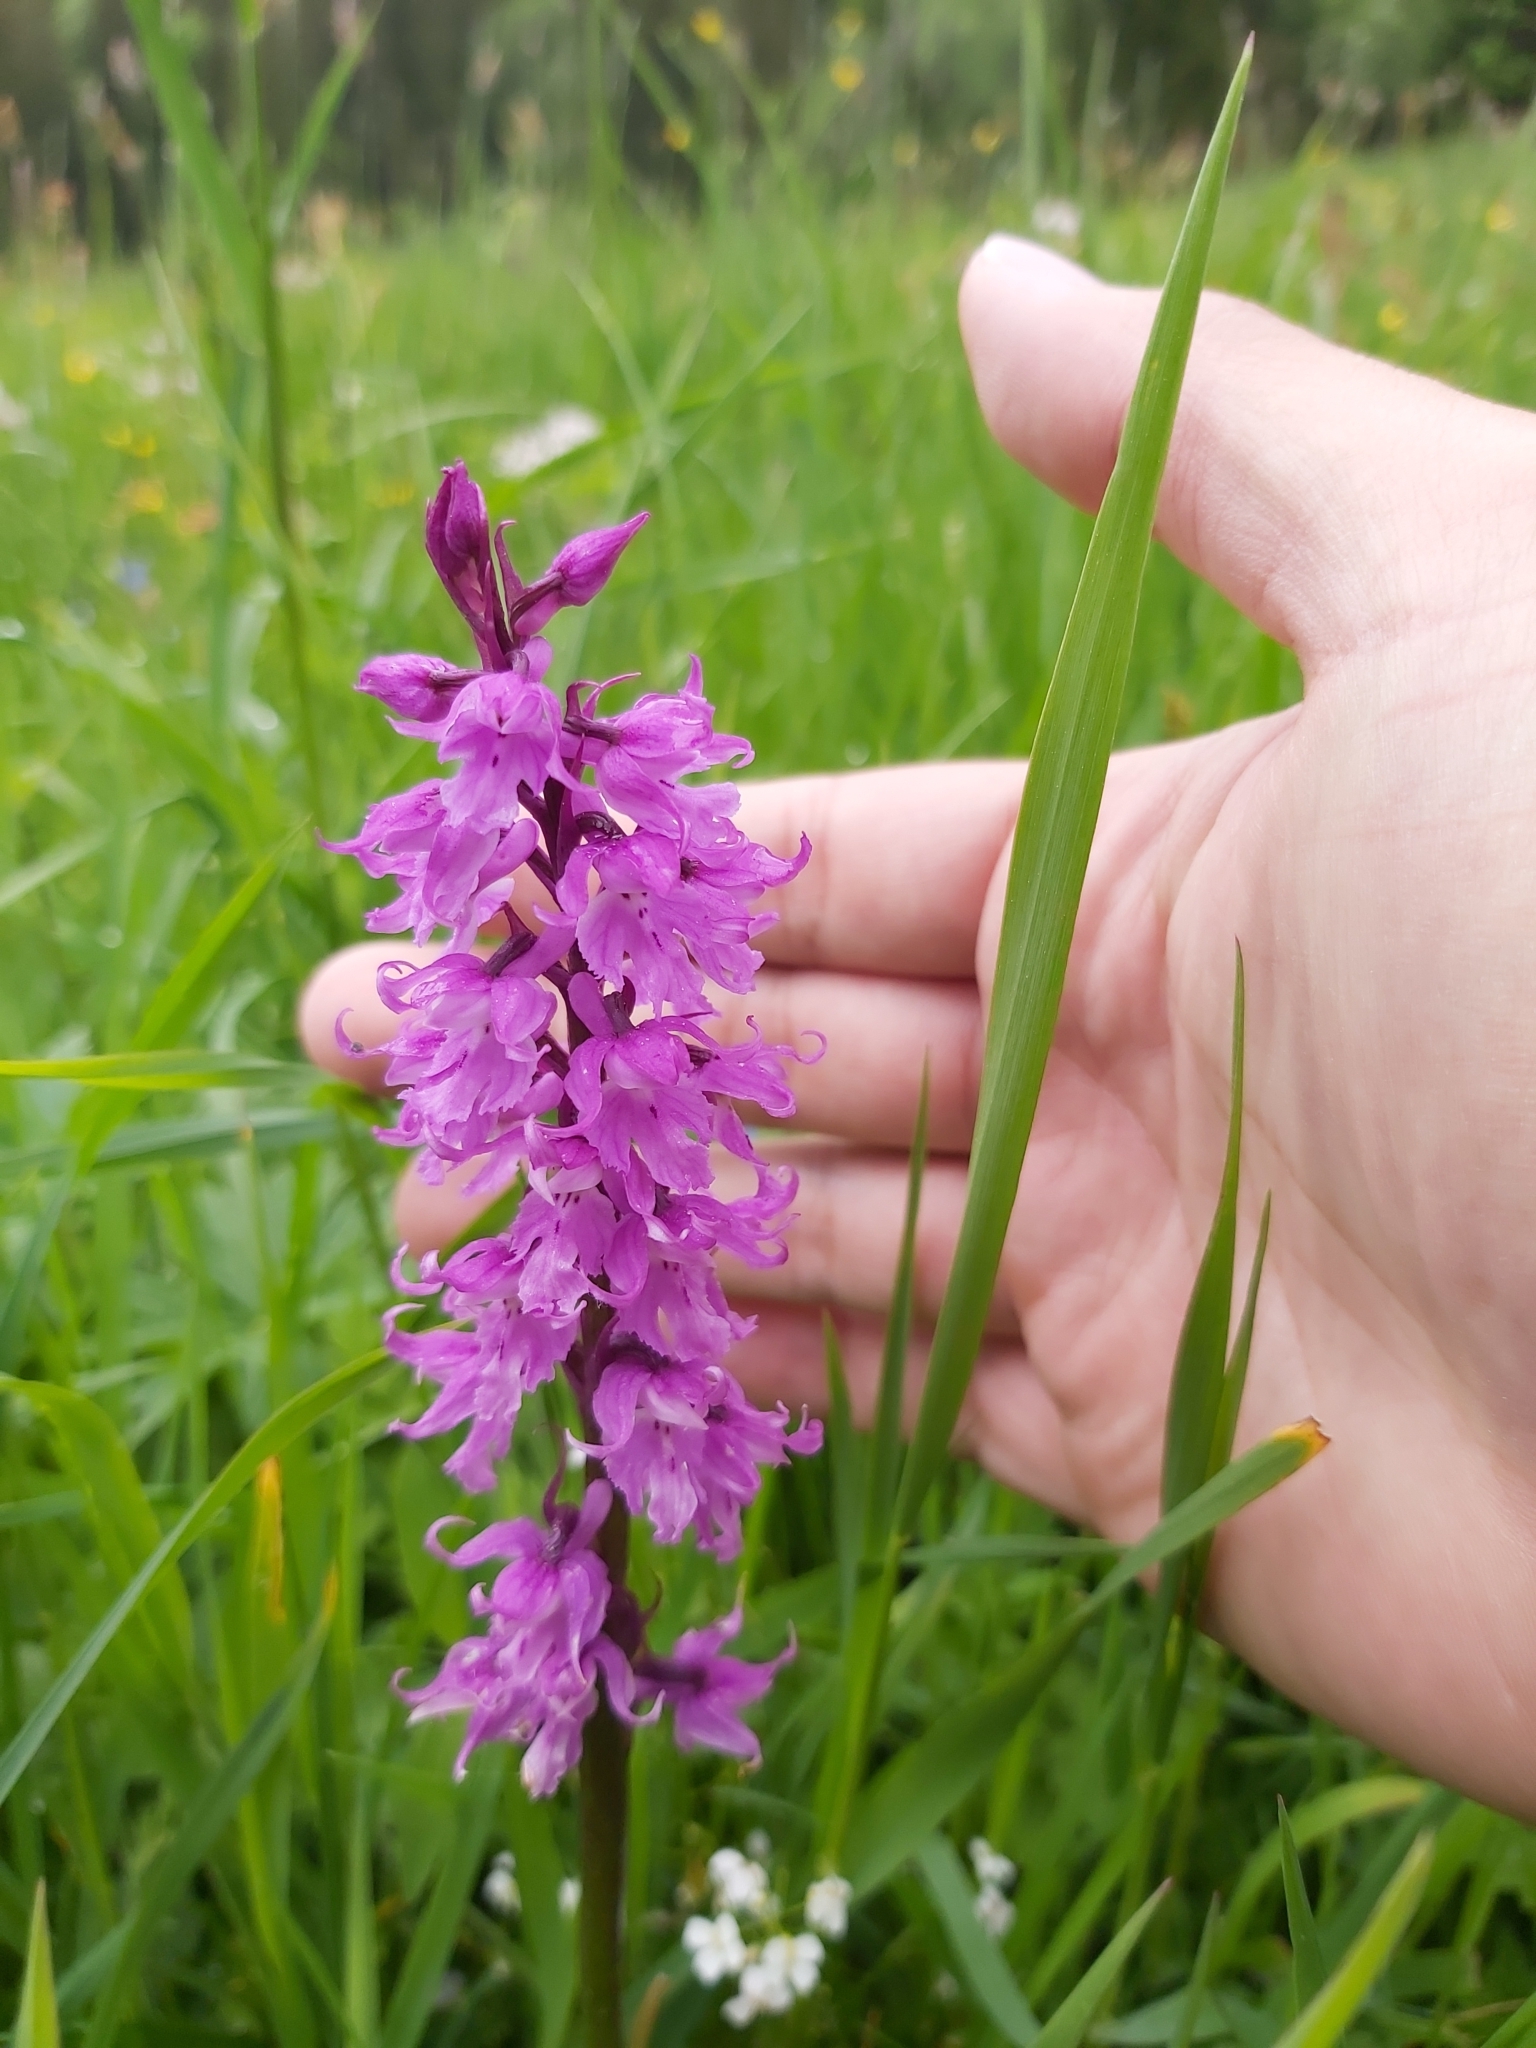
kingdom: Plantae
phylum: Tracheophyta
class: Liliopsida
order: Asparagales
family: Orchidaceae
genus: Orchis
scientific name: Orchis mascula
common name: Early-purple orchid
